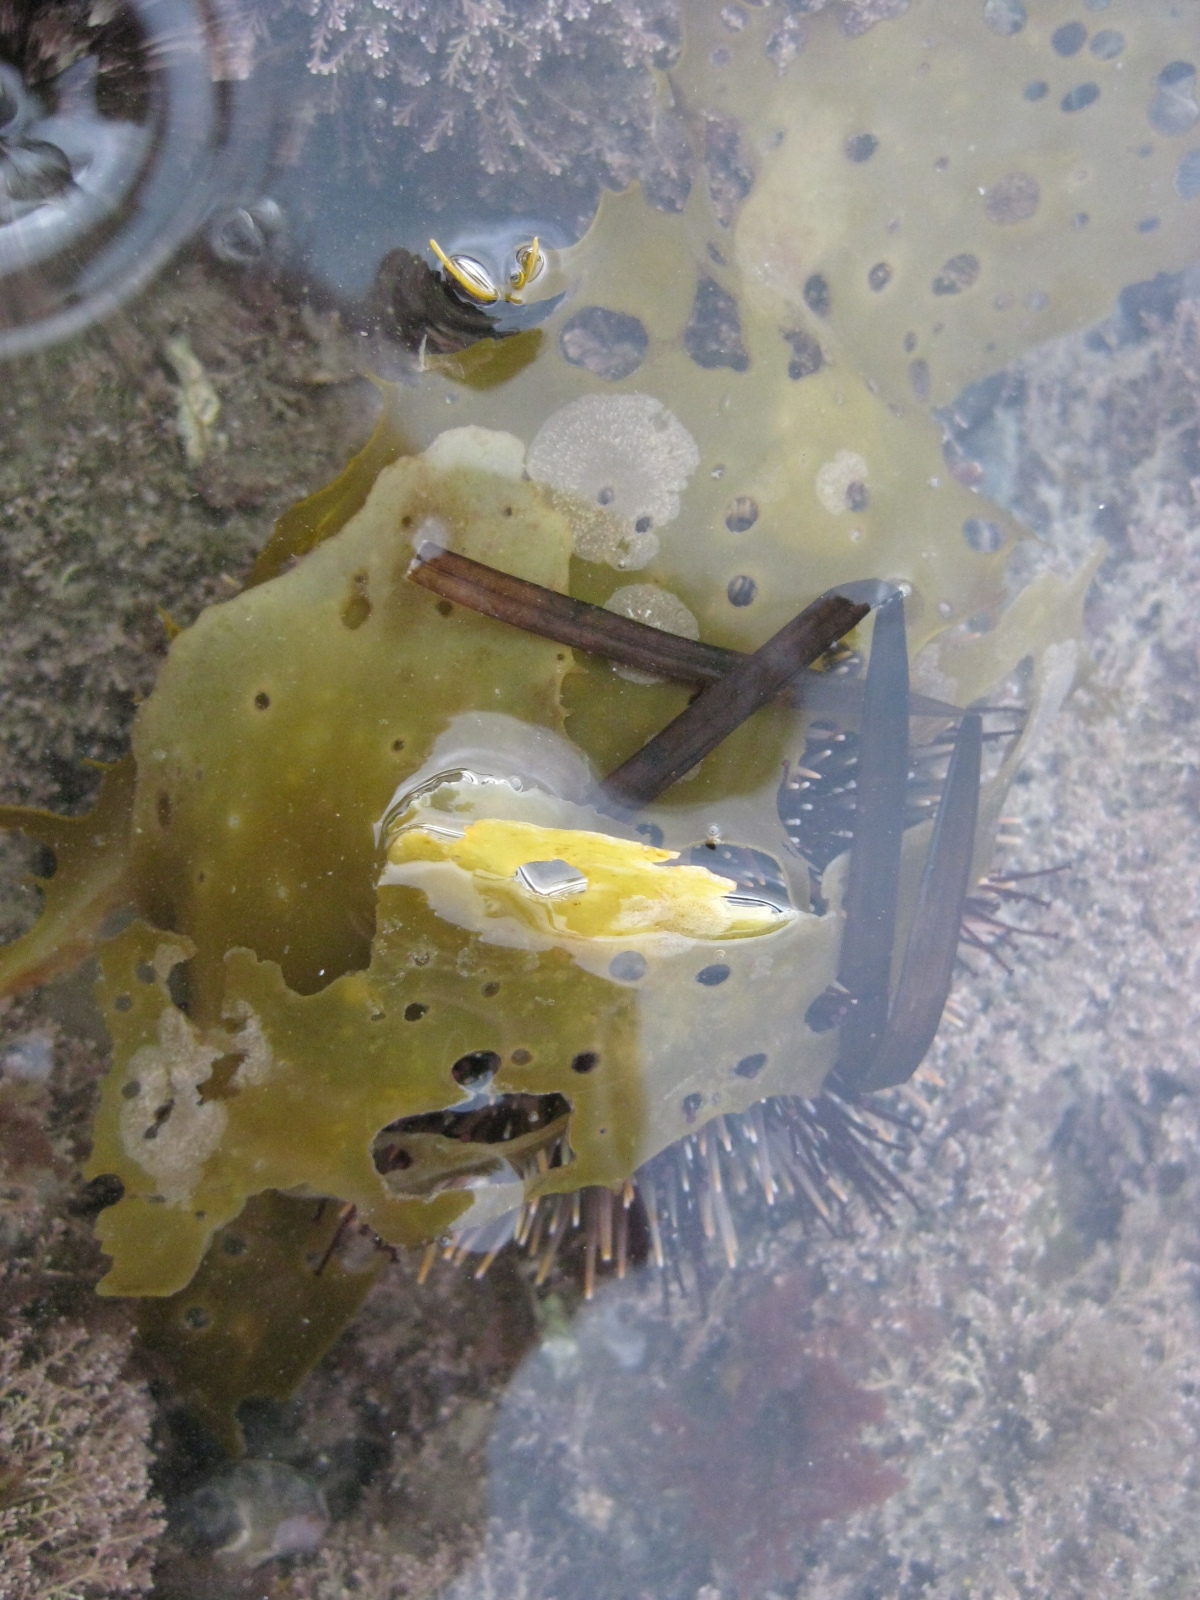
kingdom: Animalia
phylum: Echinodermata
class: Echinoidea
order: Camarodonta
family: Echinometridae
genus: Evechinus
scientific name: Evechinus chloroticus
